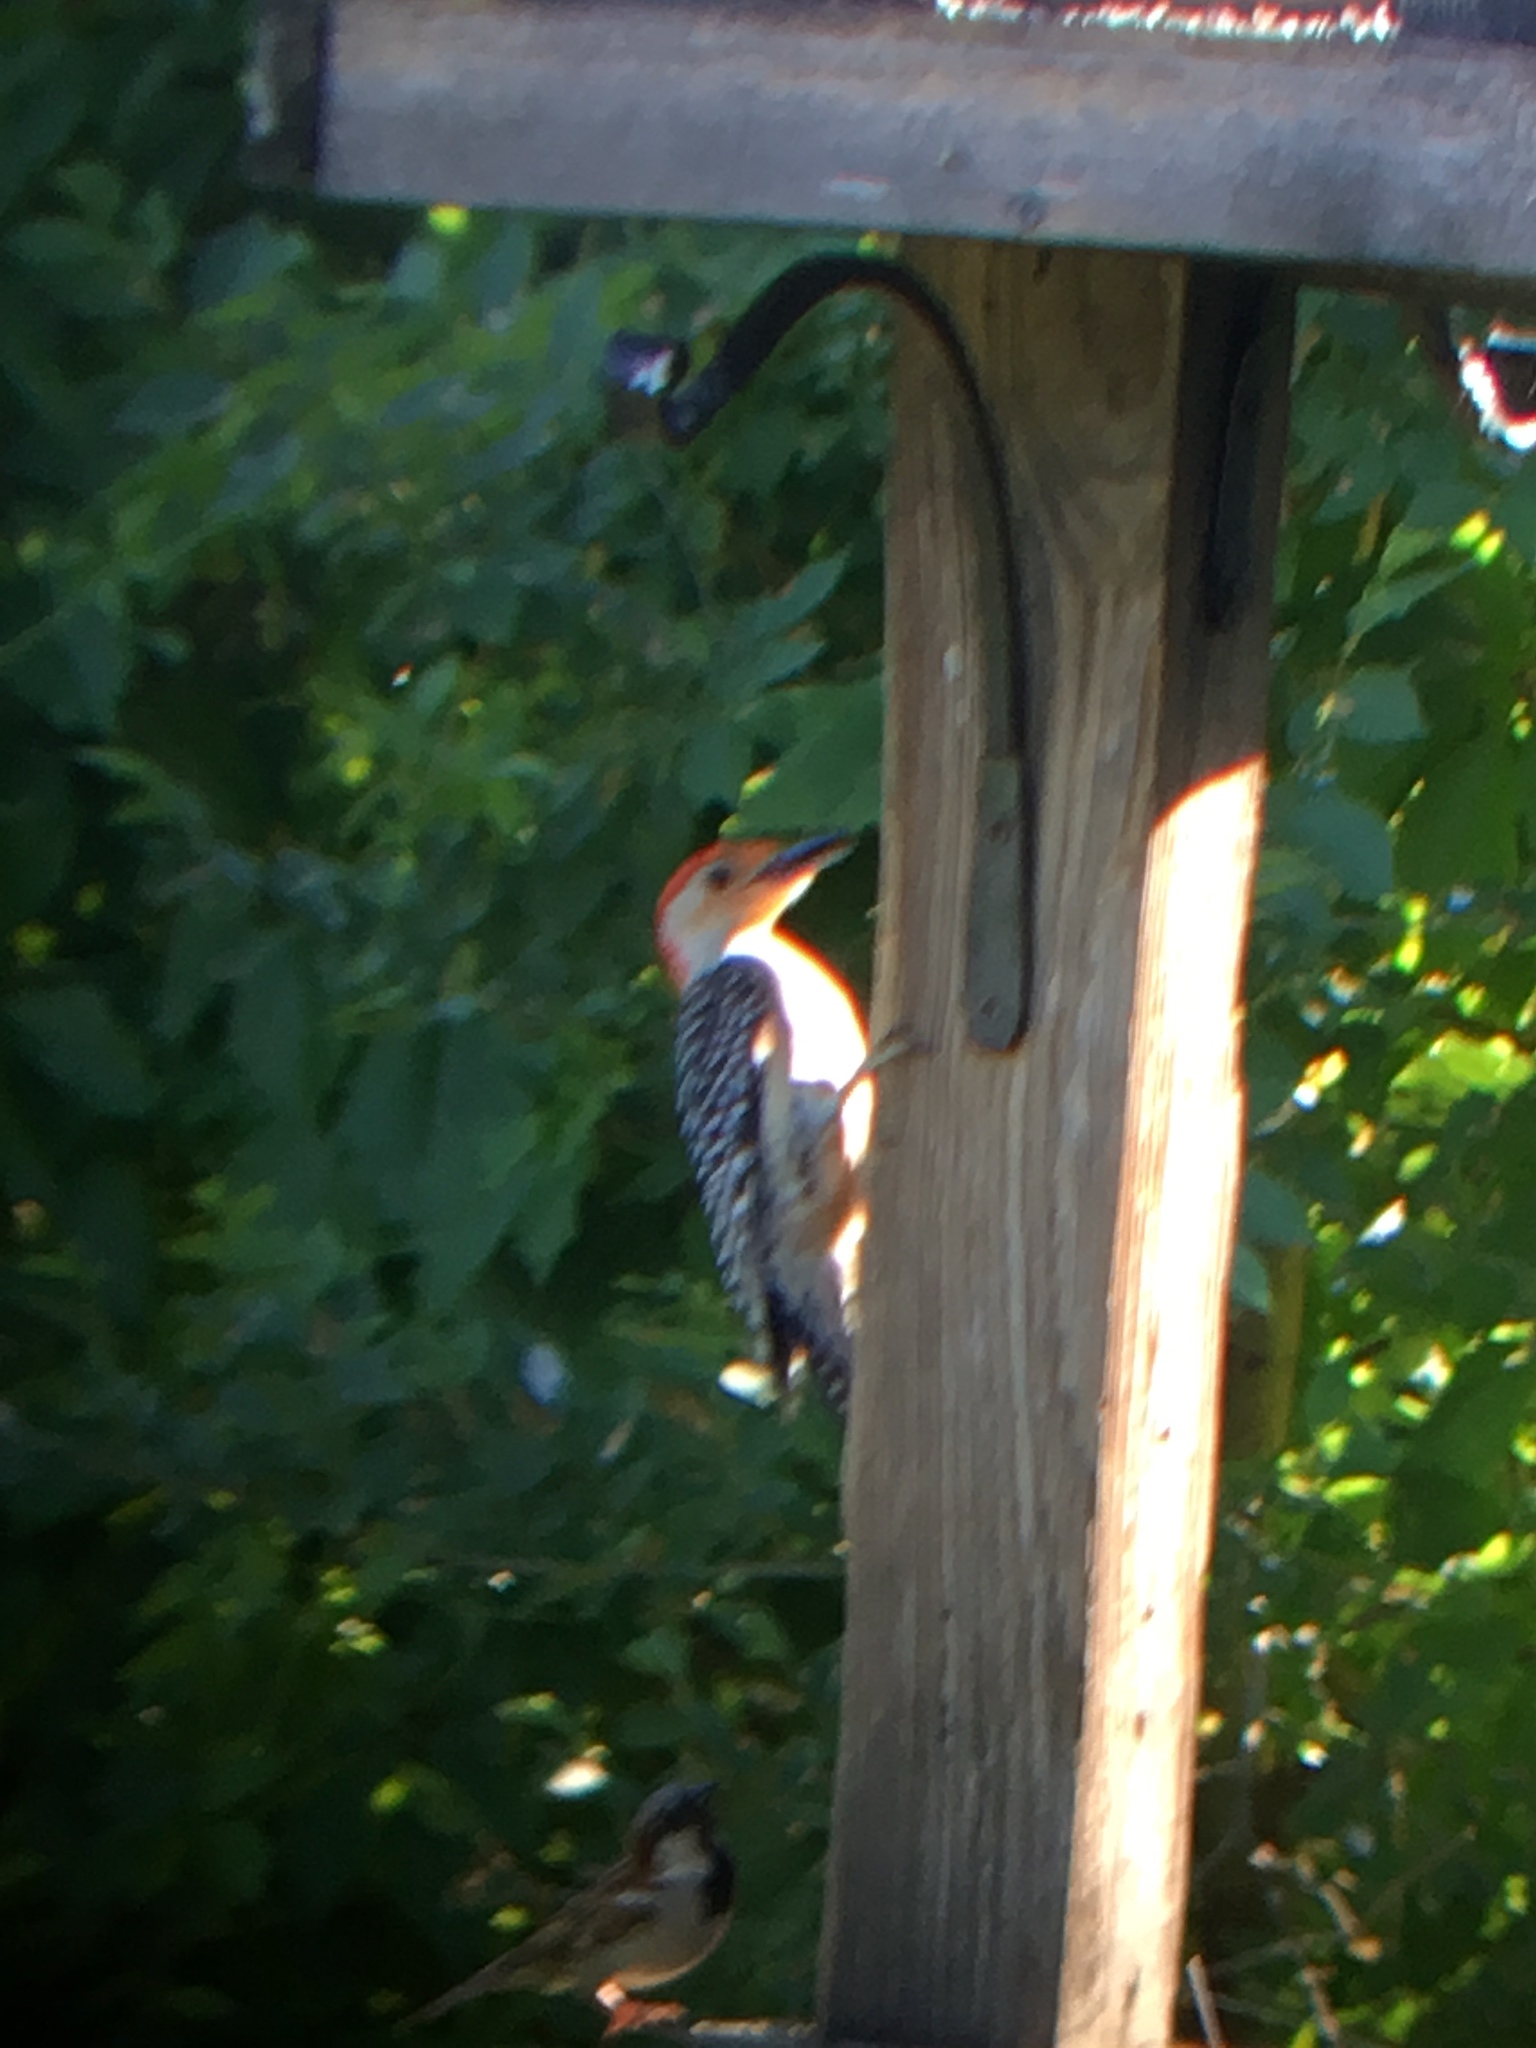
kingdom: Animalia
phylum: Chordata
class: Aves
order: Piciformes
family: Picidae
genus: Melanerpes
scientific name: Melanerpes carolinus
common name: Red-bellied woodpecker
